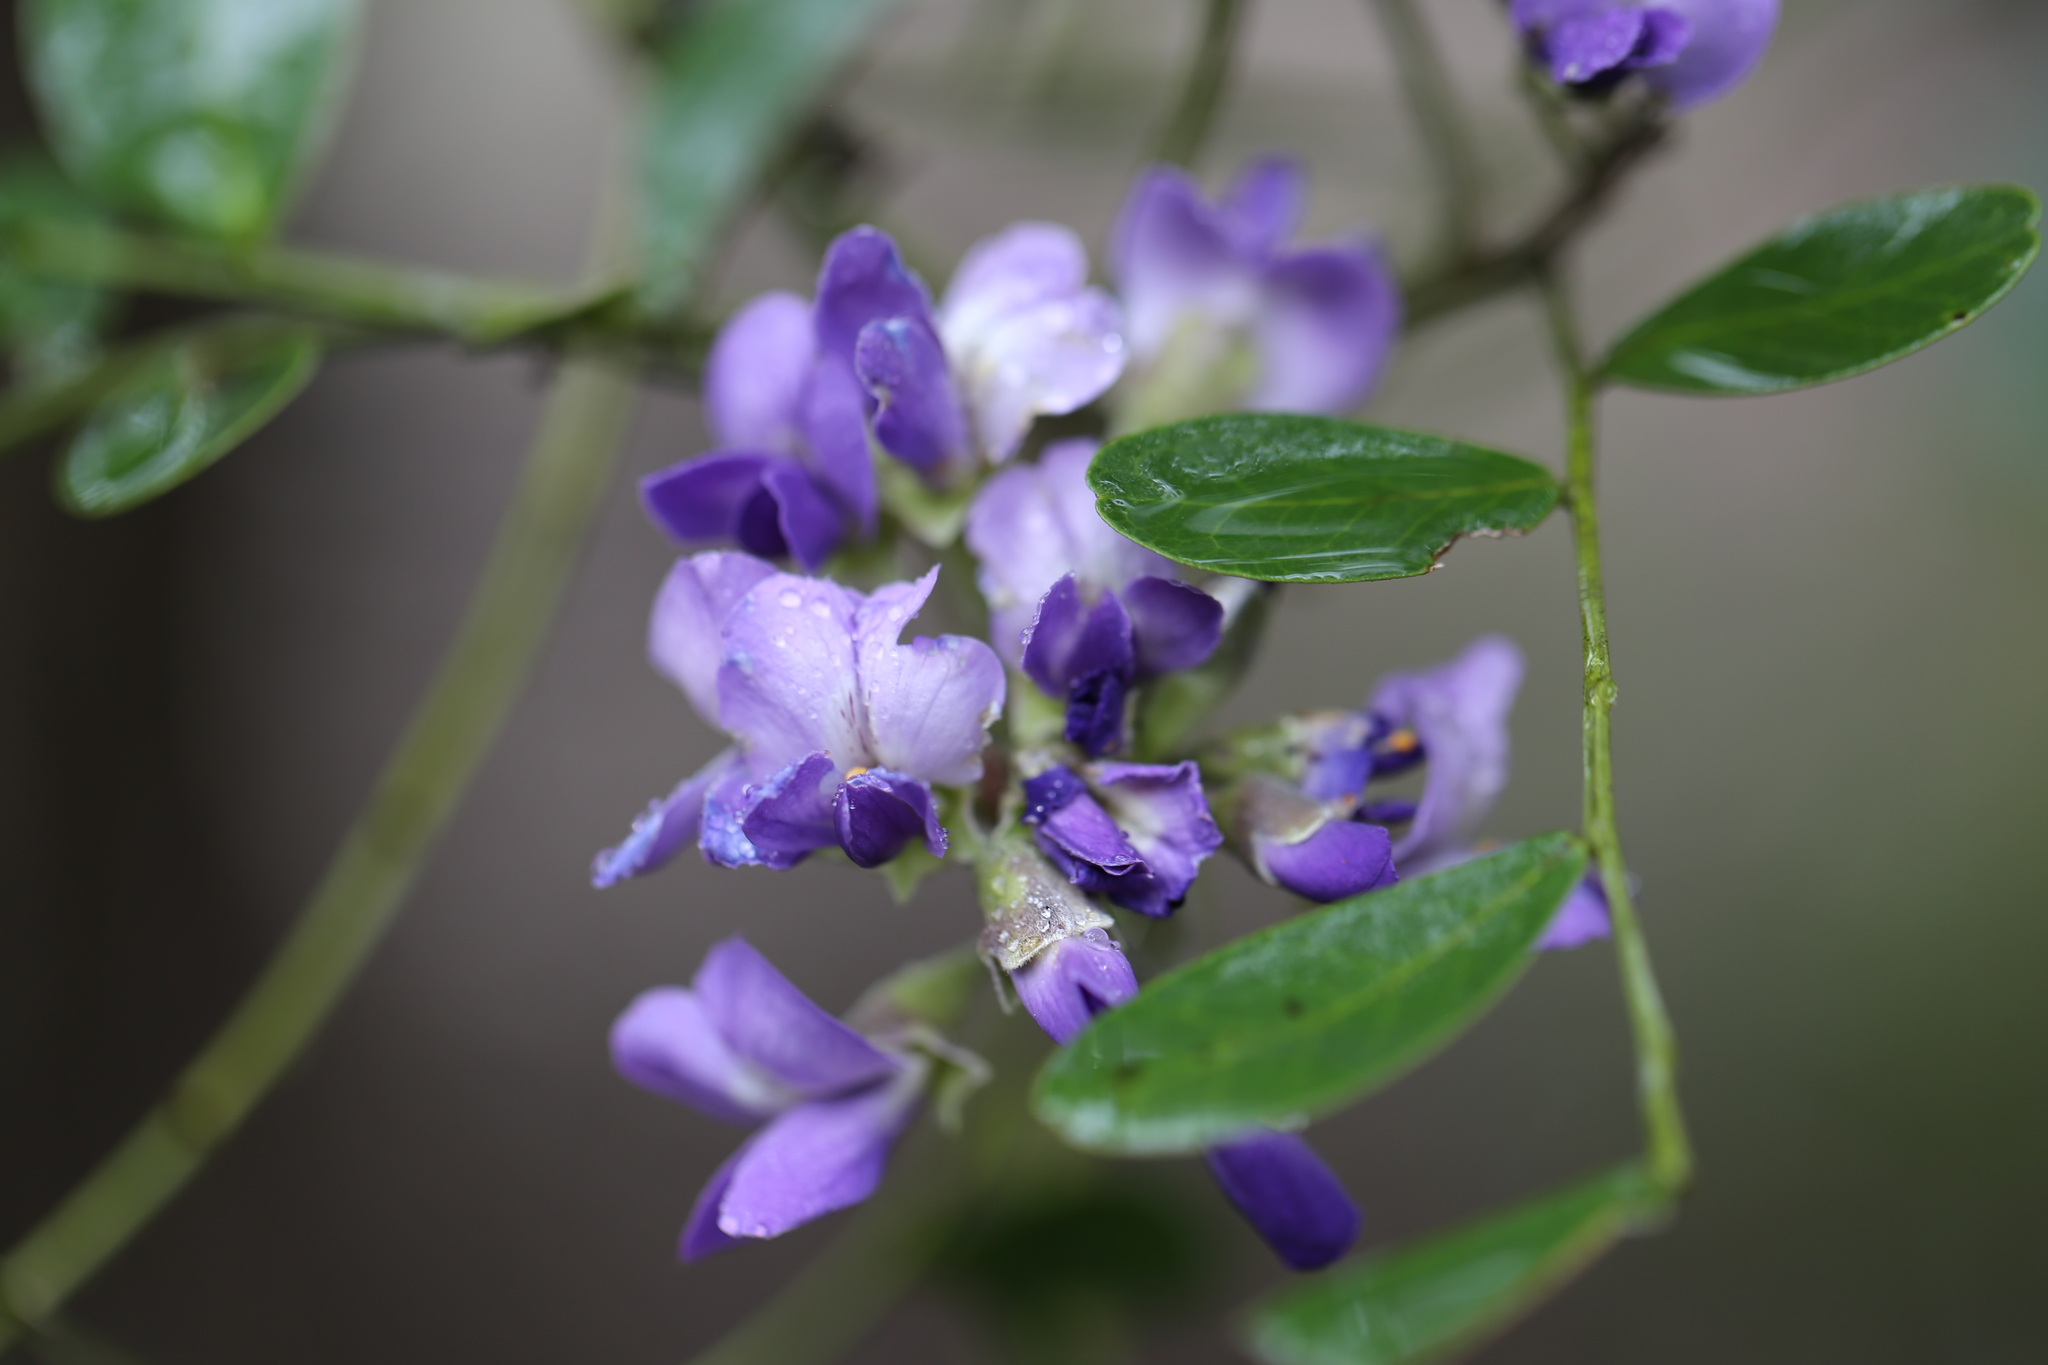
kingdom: Plantae
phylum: Tracheophyta
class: Magnoliopsida
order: Fabales
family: Fabaceae
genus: Dermatophyllum
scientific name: Dermatophyllum secundiflorum
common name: Texas-mountain-laurel
